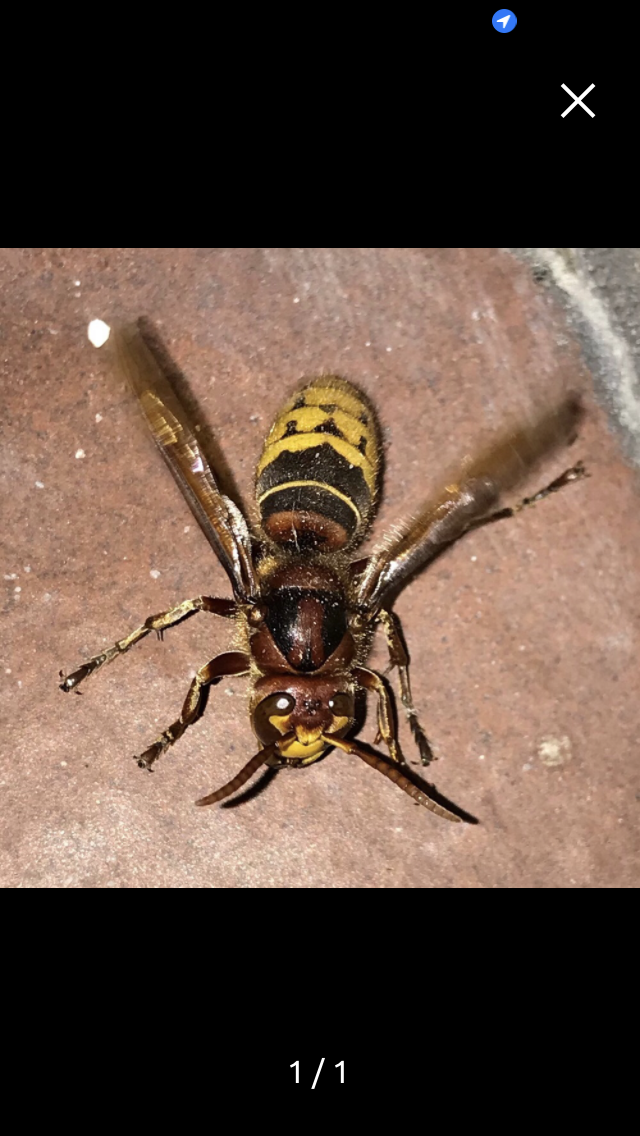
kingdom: Animalia
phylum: Arthropoda
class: Insecta
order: Hymenoptera
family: Vespidae
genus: Vespa
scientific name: Vespa crabro
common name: Hornet
